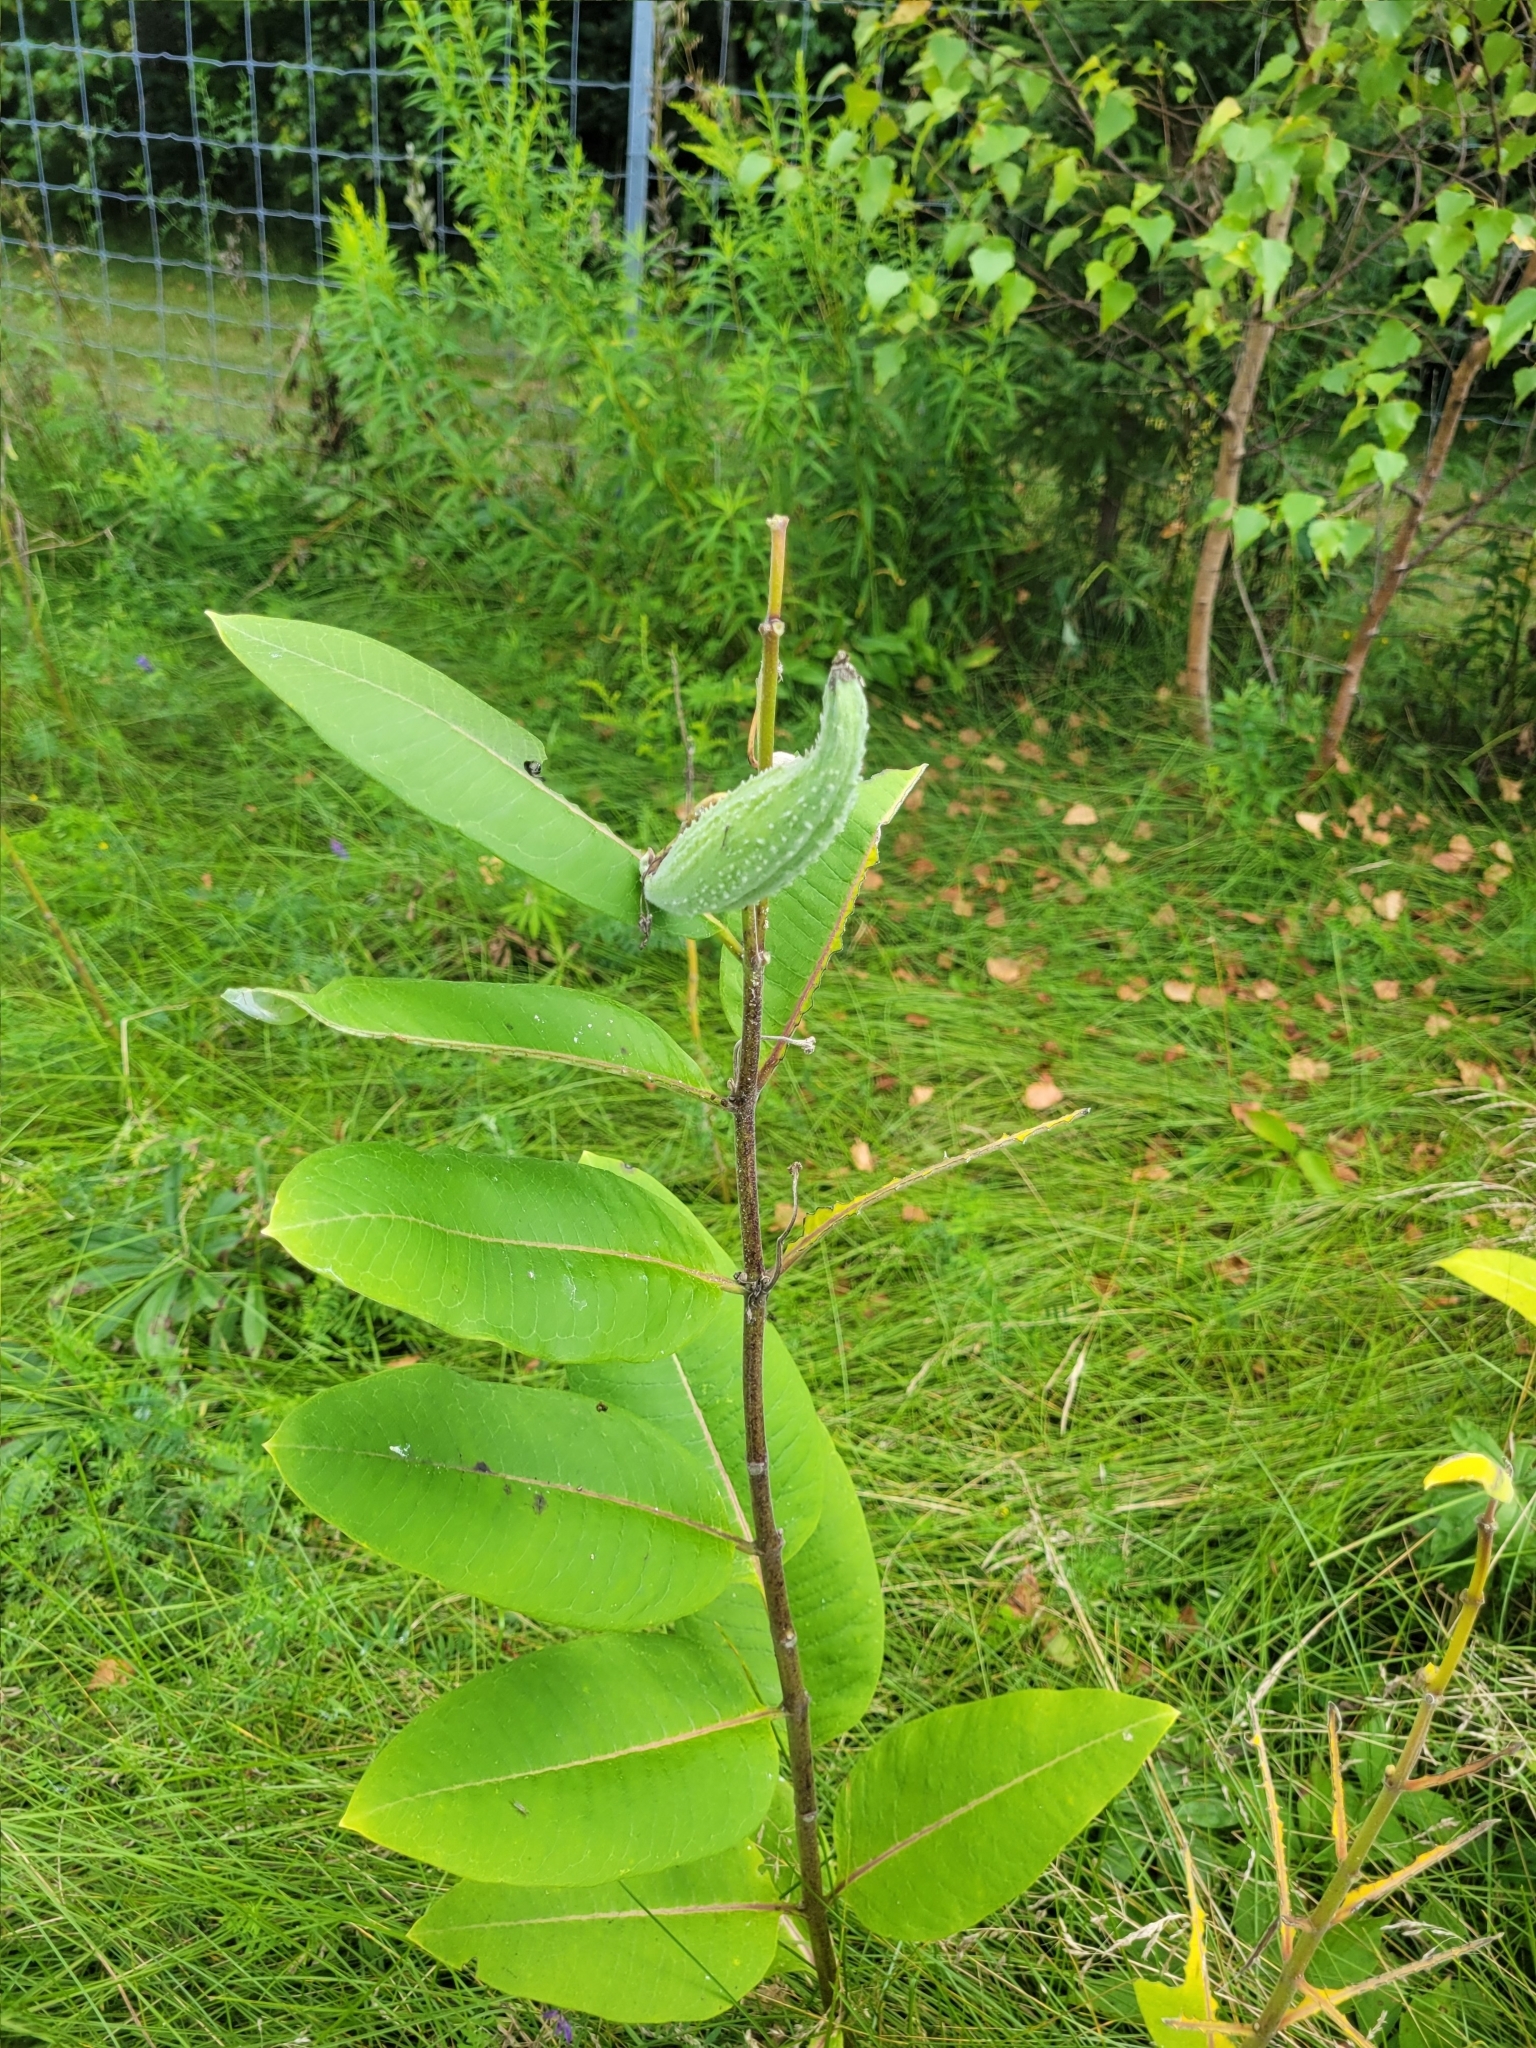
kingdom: Plantae
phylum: Tracheophyta
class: Magnoliopsida
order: Gentianales
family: Apocynaceae
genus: Asclepias
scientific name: Asclepias syriaca
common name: Common milkweed
